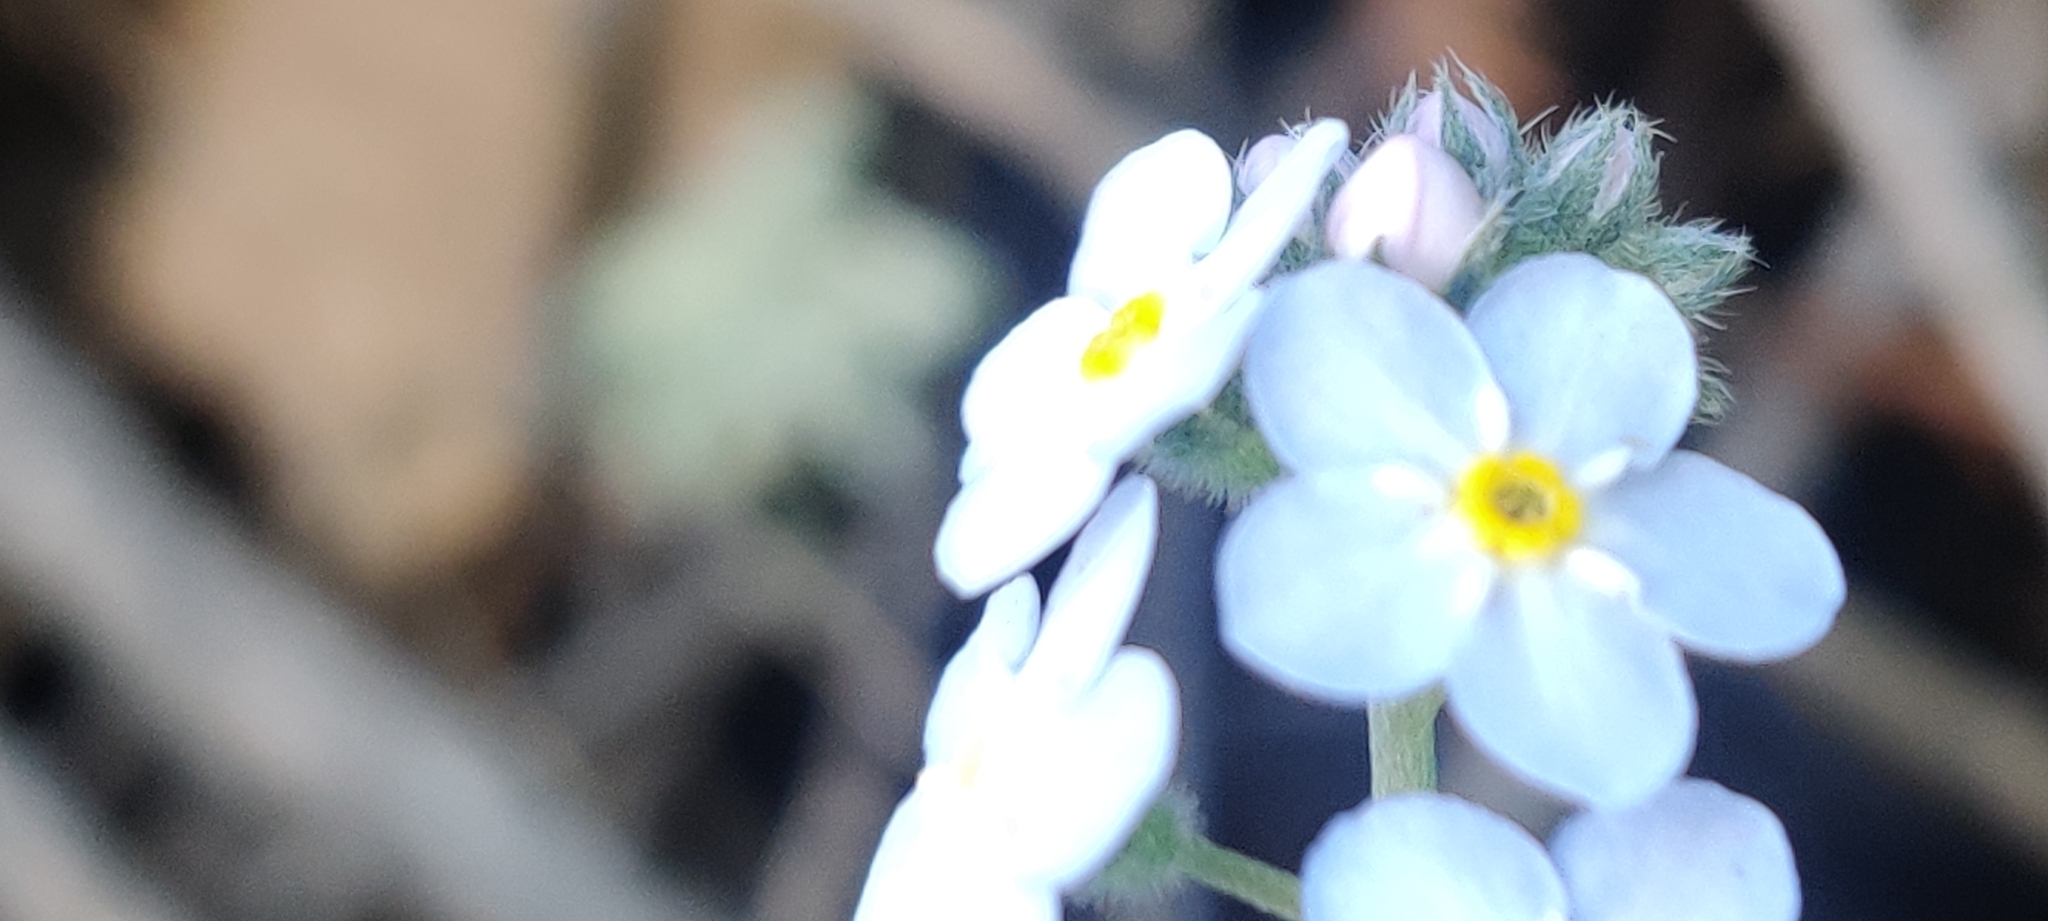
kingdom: Plantae
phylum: Tracheophyta
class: Magnoliopsida
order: Boraginales
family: Boraginaceae
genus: Myosotis
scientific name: Myosotis latifolia
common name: Broadleaf forget-me-not
